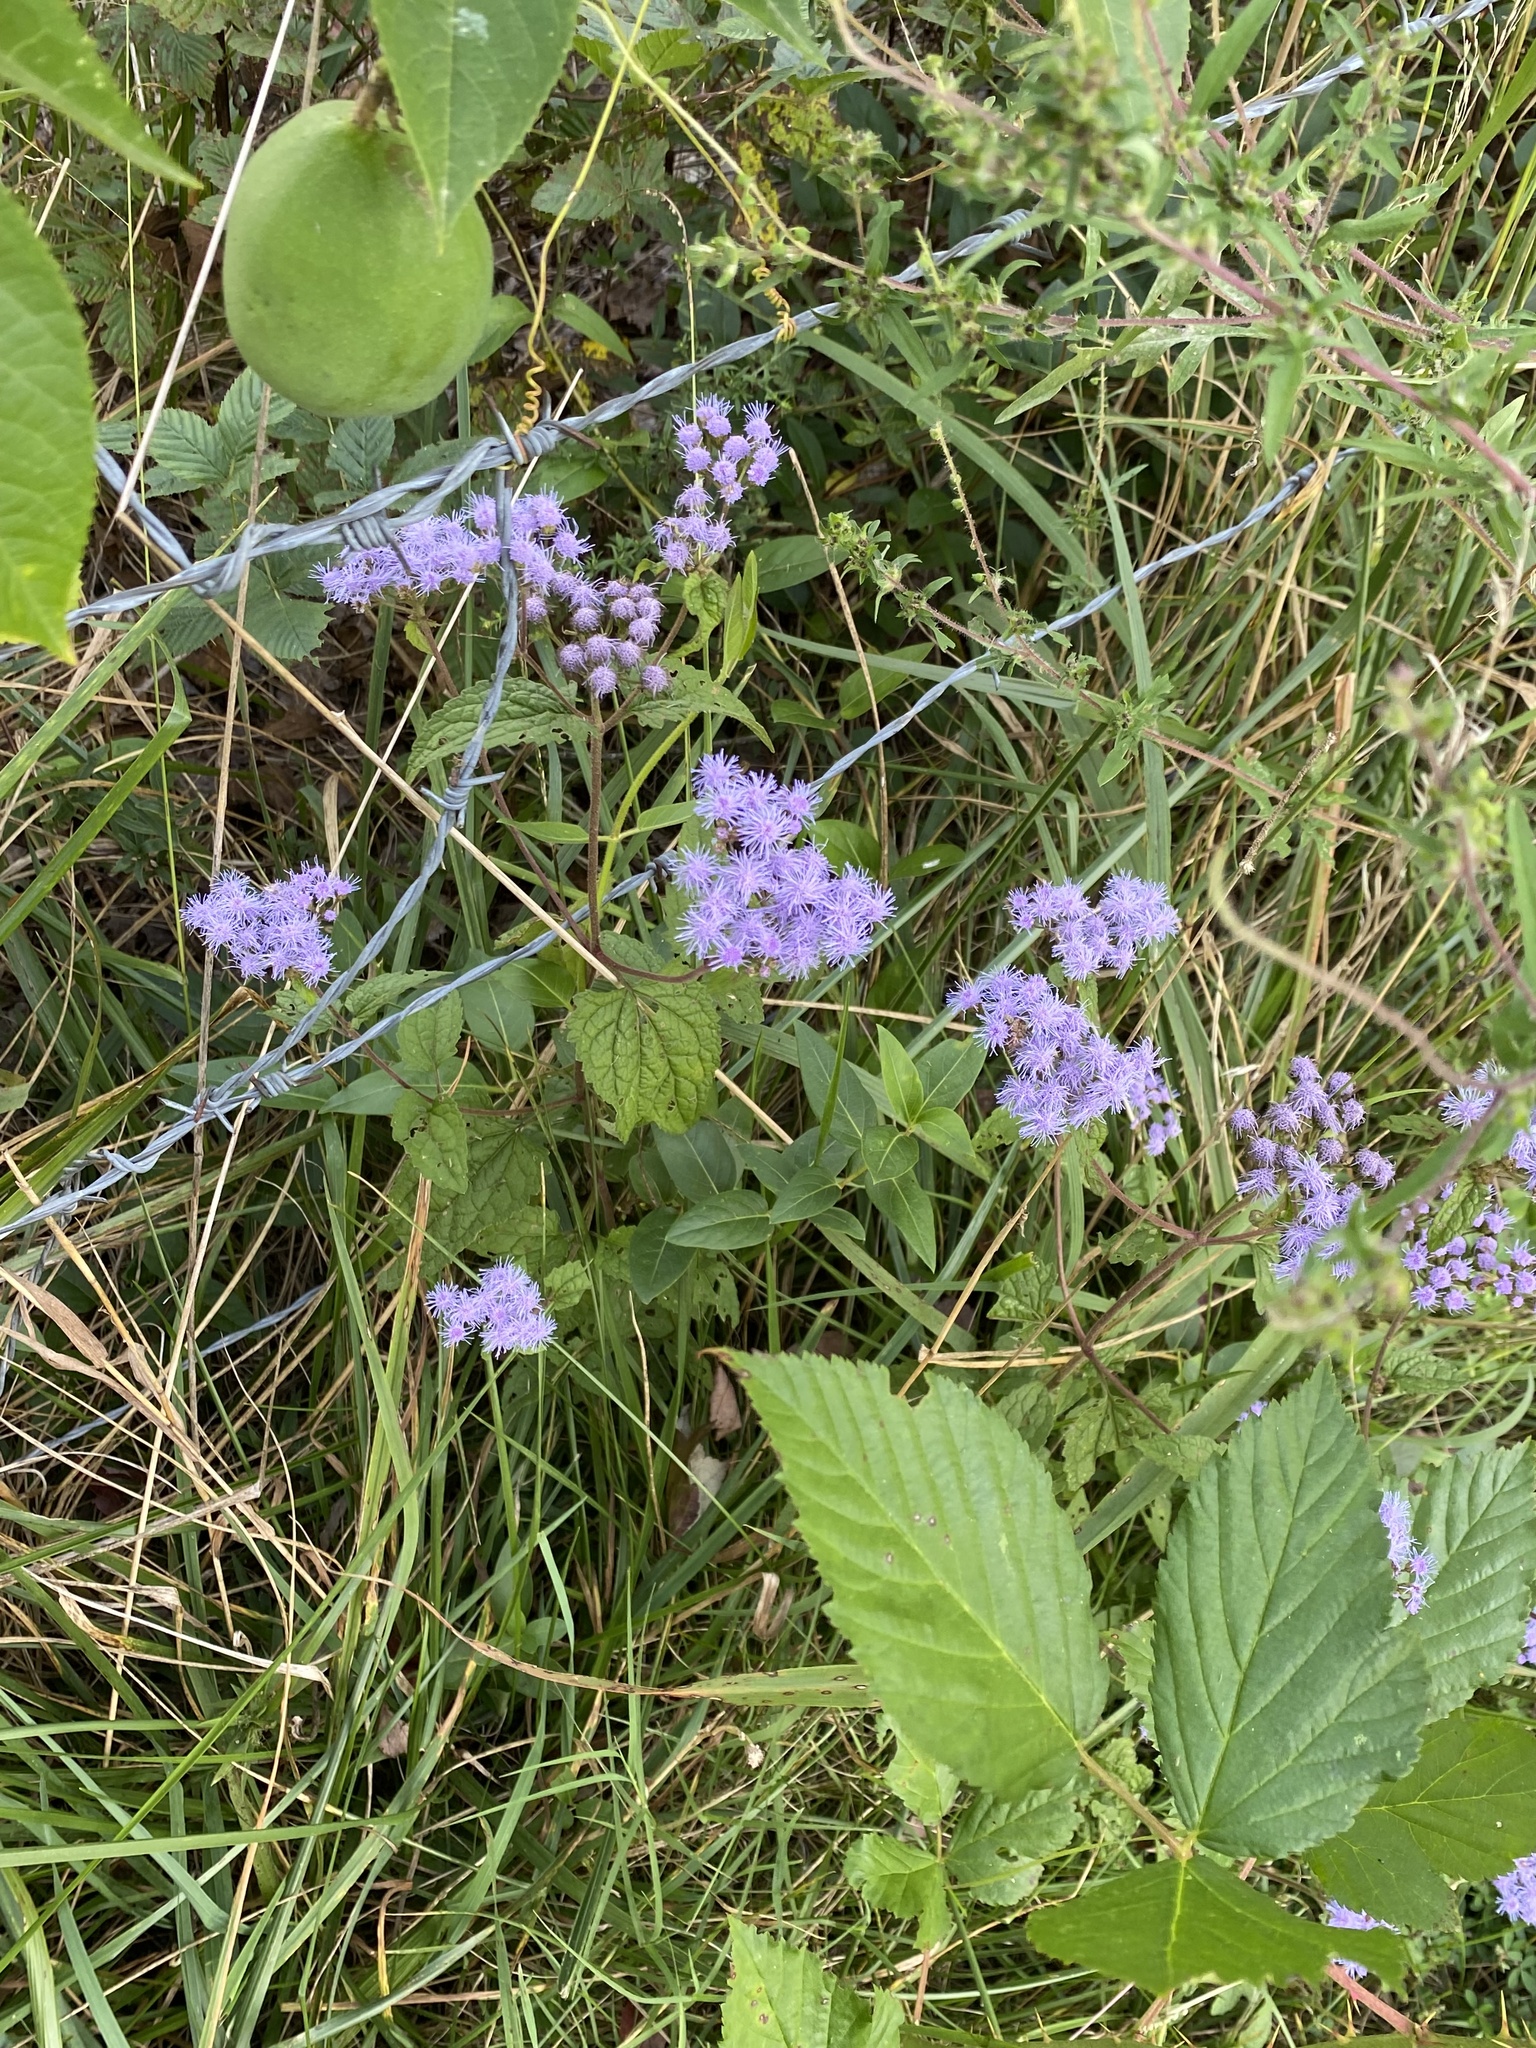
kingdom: Plantae
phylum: Tracheophyta
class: Magnoliopsida
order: Asterales
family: Asteraceae
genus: Conoclinium
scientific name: Conoclinium coelestinum
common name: Blue mistflower
